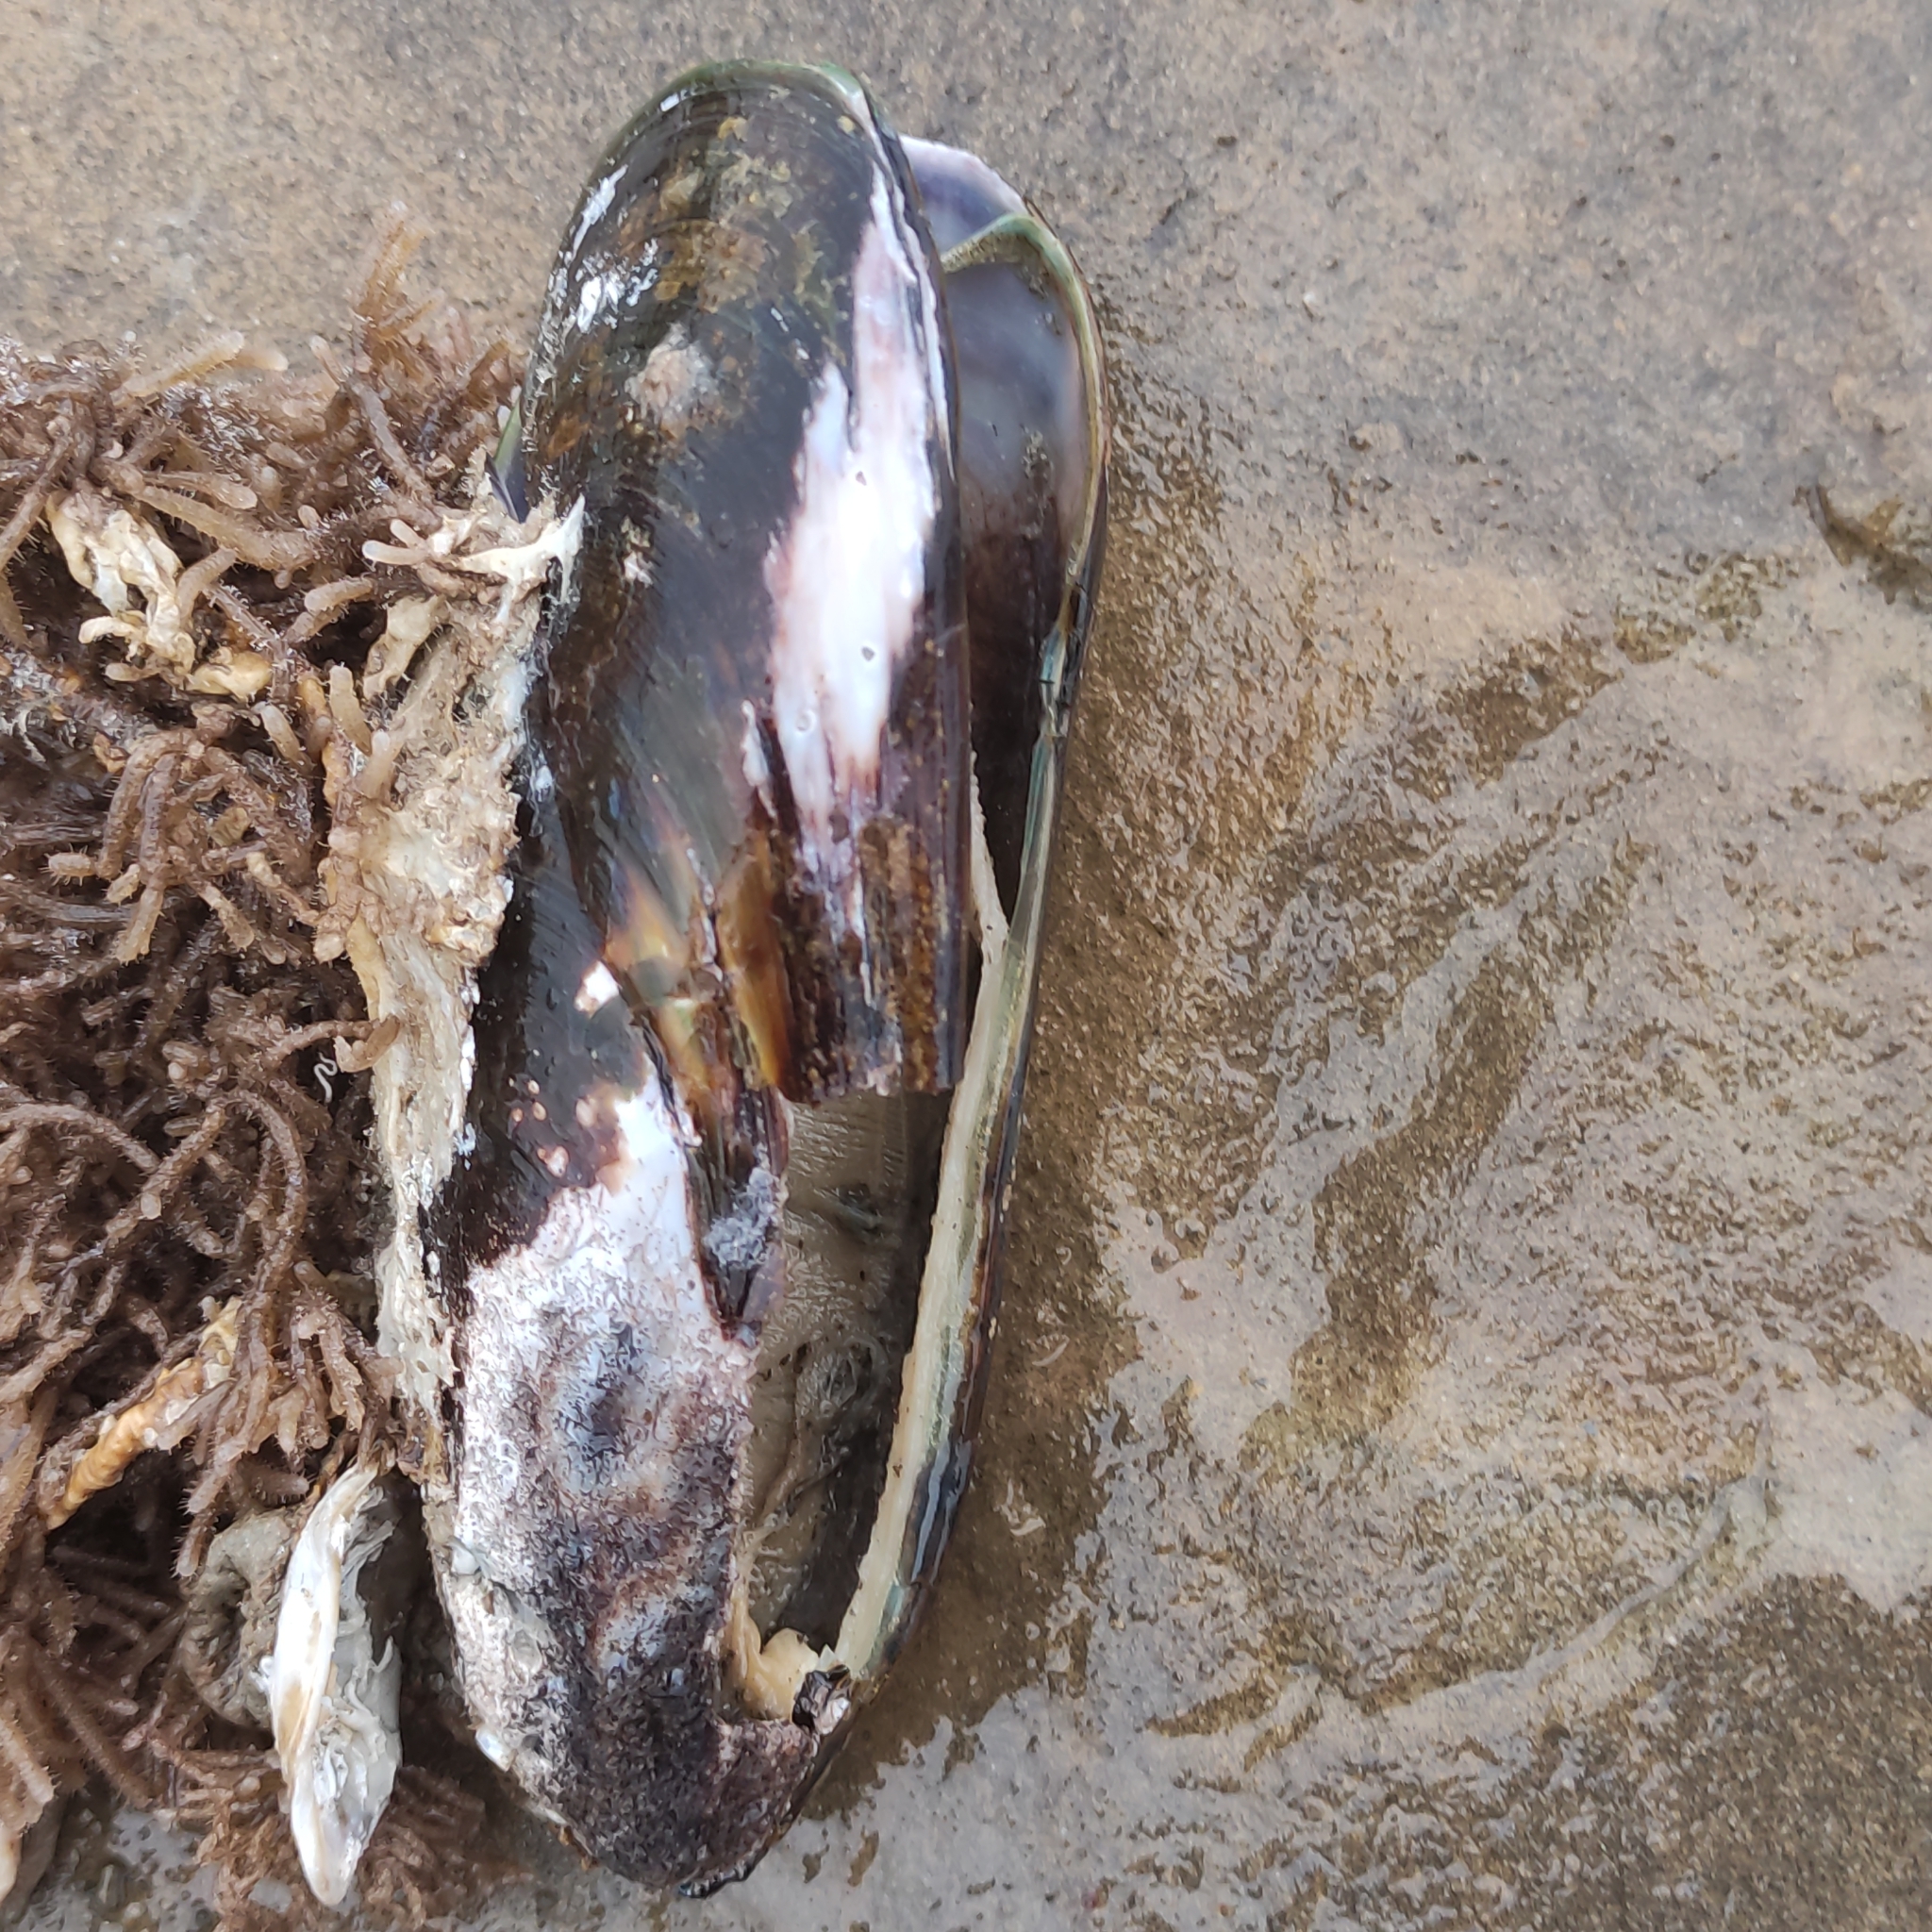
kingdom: Animalia
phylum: Mollusca
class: Bivalvia
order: Mytilida
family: Mytilidae
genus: Perna
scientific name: Perna canaliculus
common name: New zealand greenshelltm
